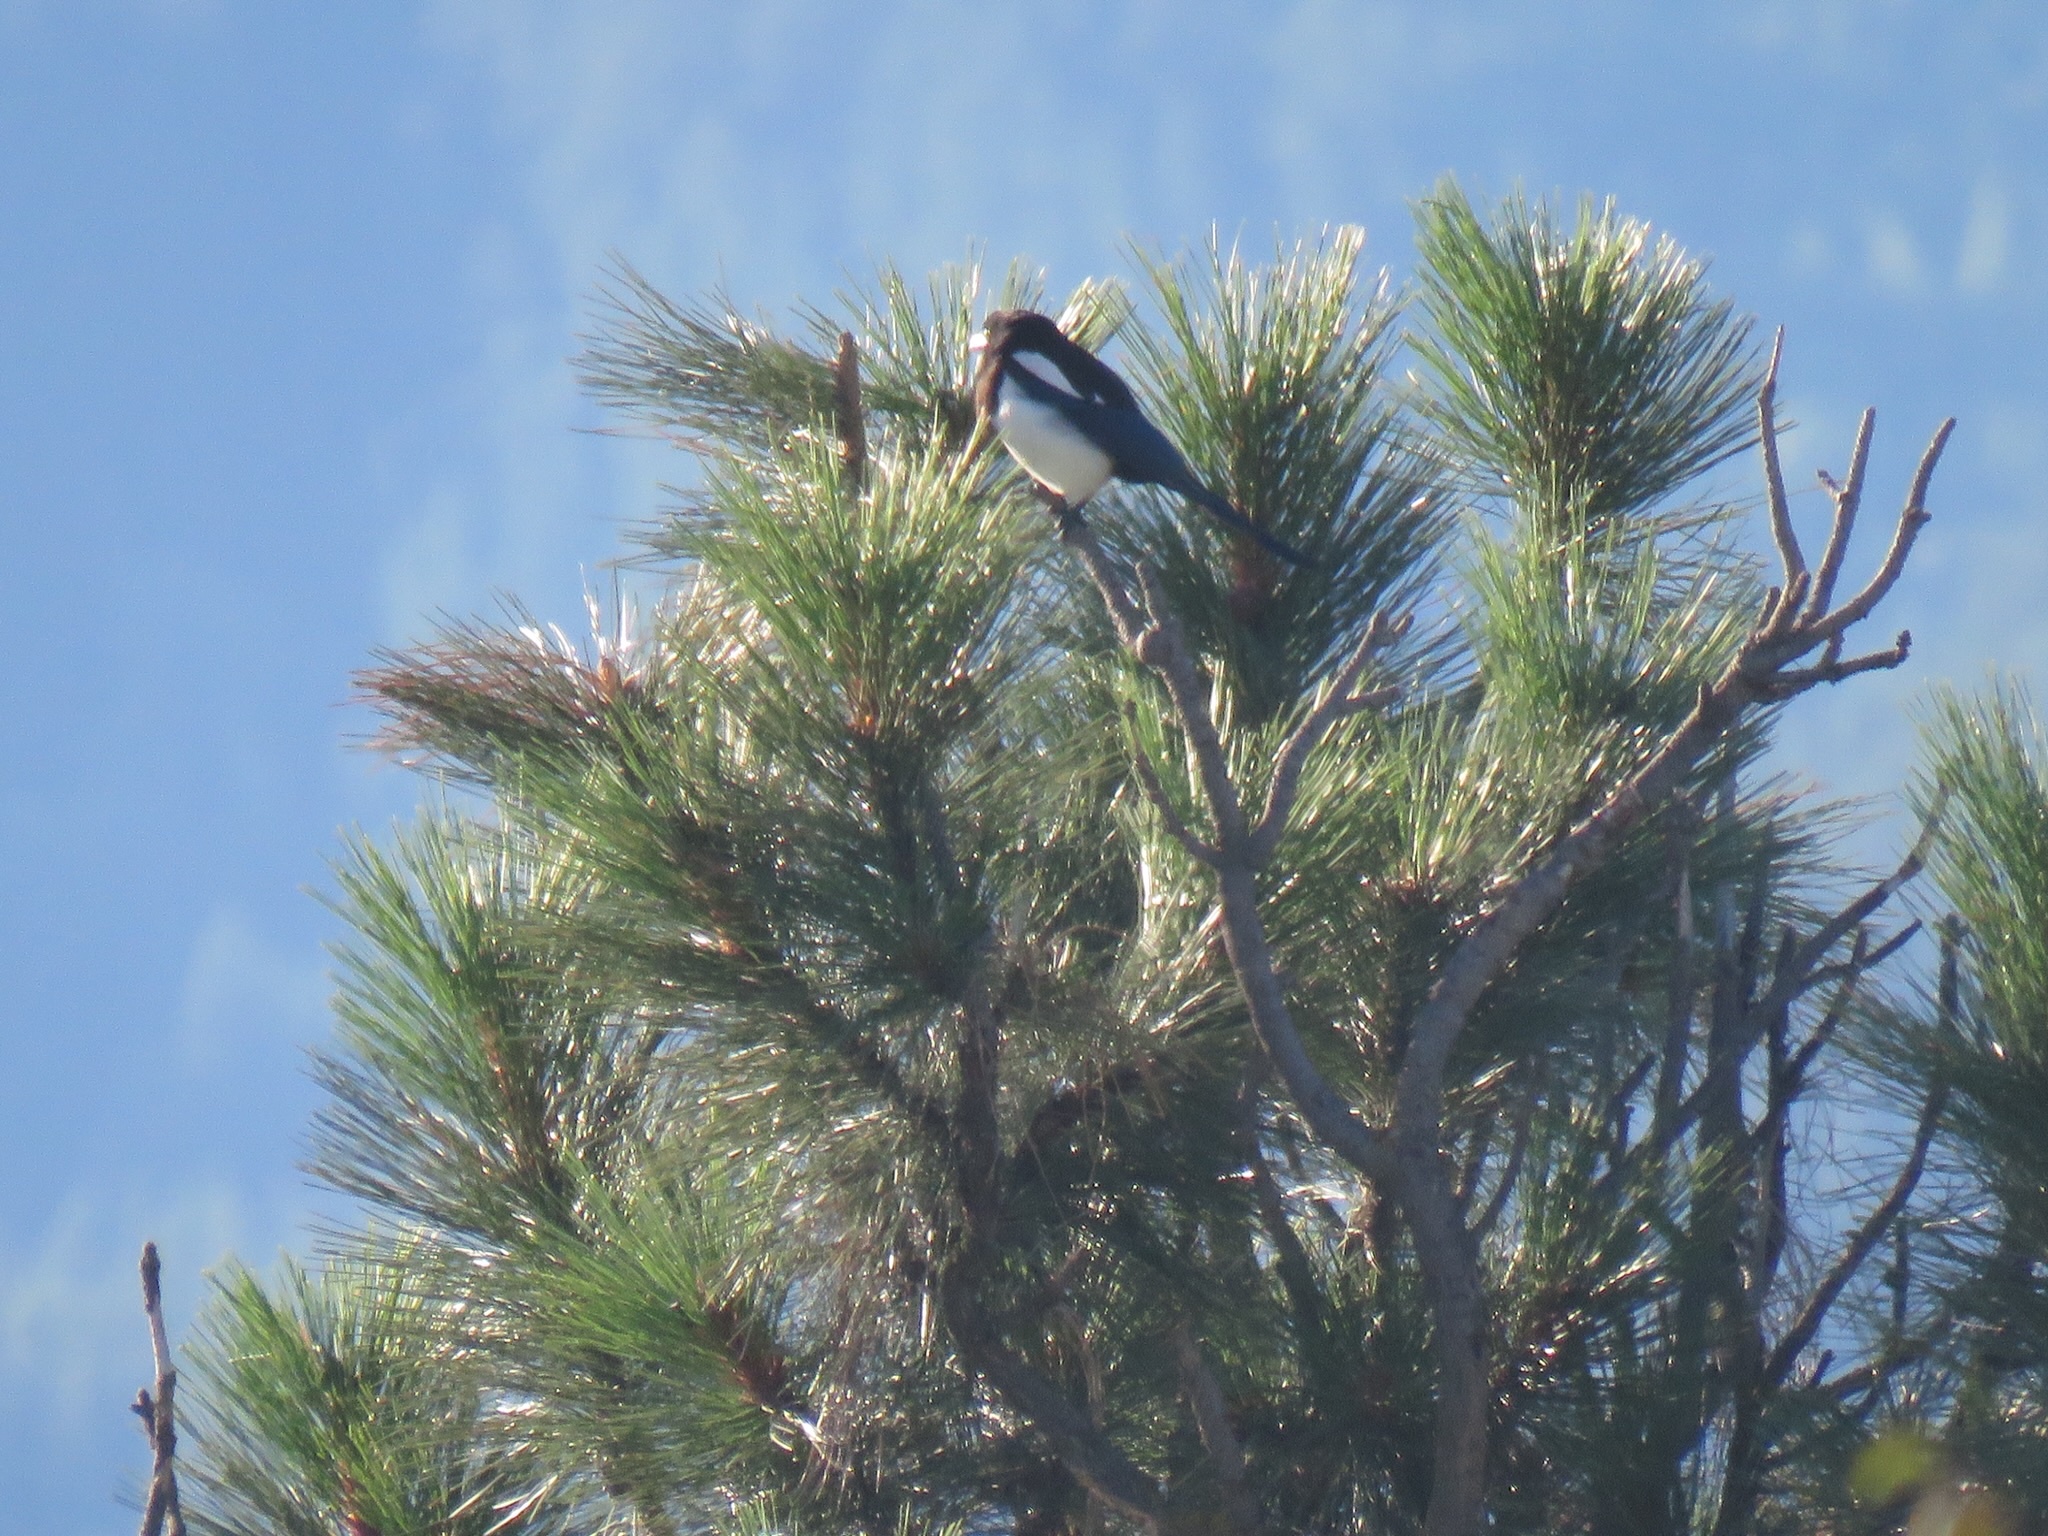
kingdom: Animalia
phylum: Chordata
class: Aves
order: Passeriformes
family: Corvidae
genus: Pica
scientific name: Pica hudsonia
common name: Black-billed magpie
